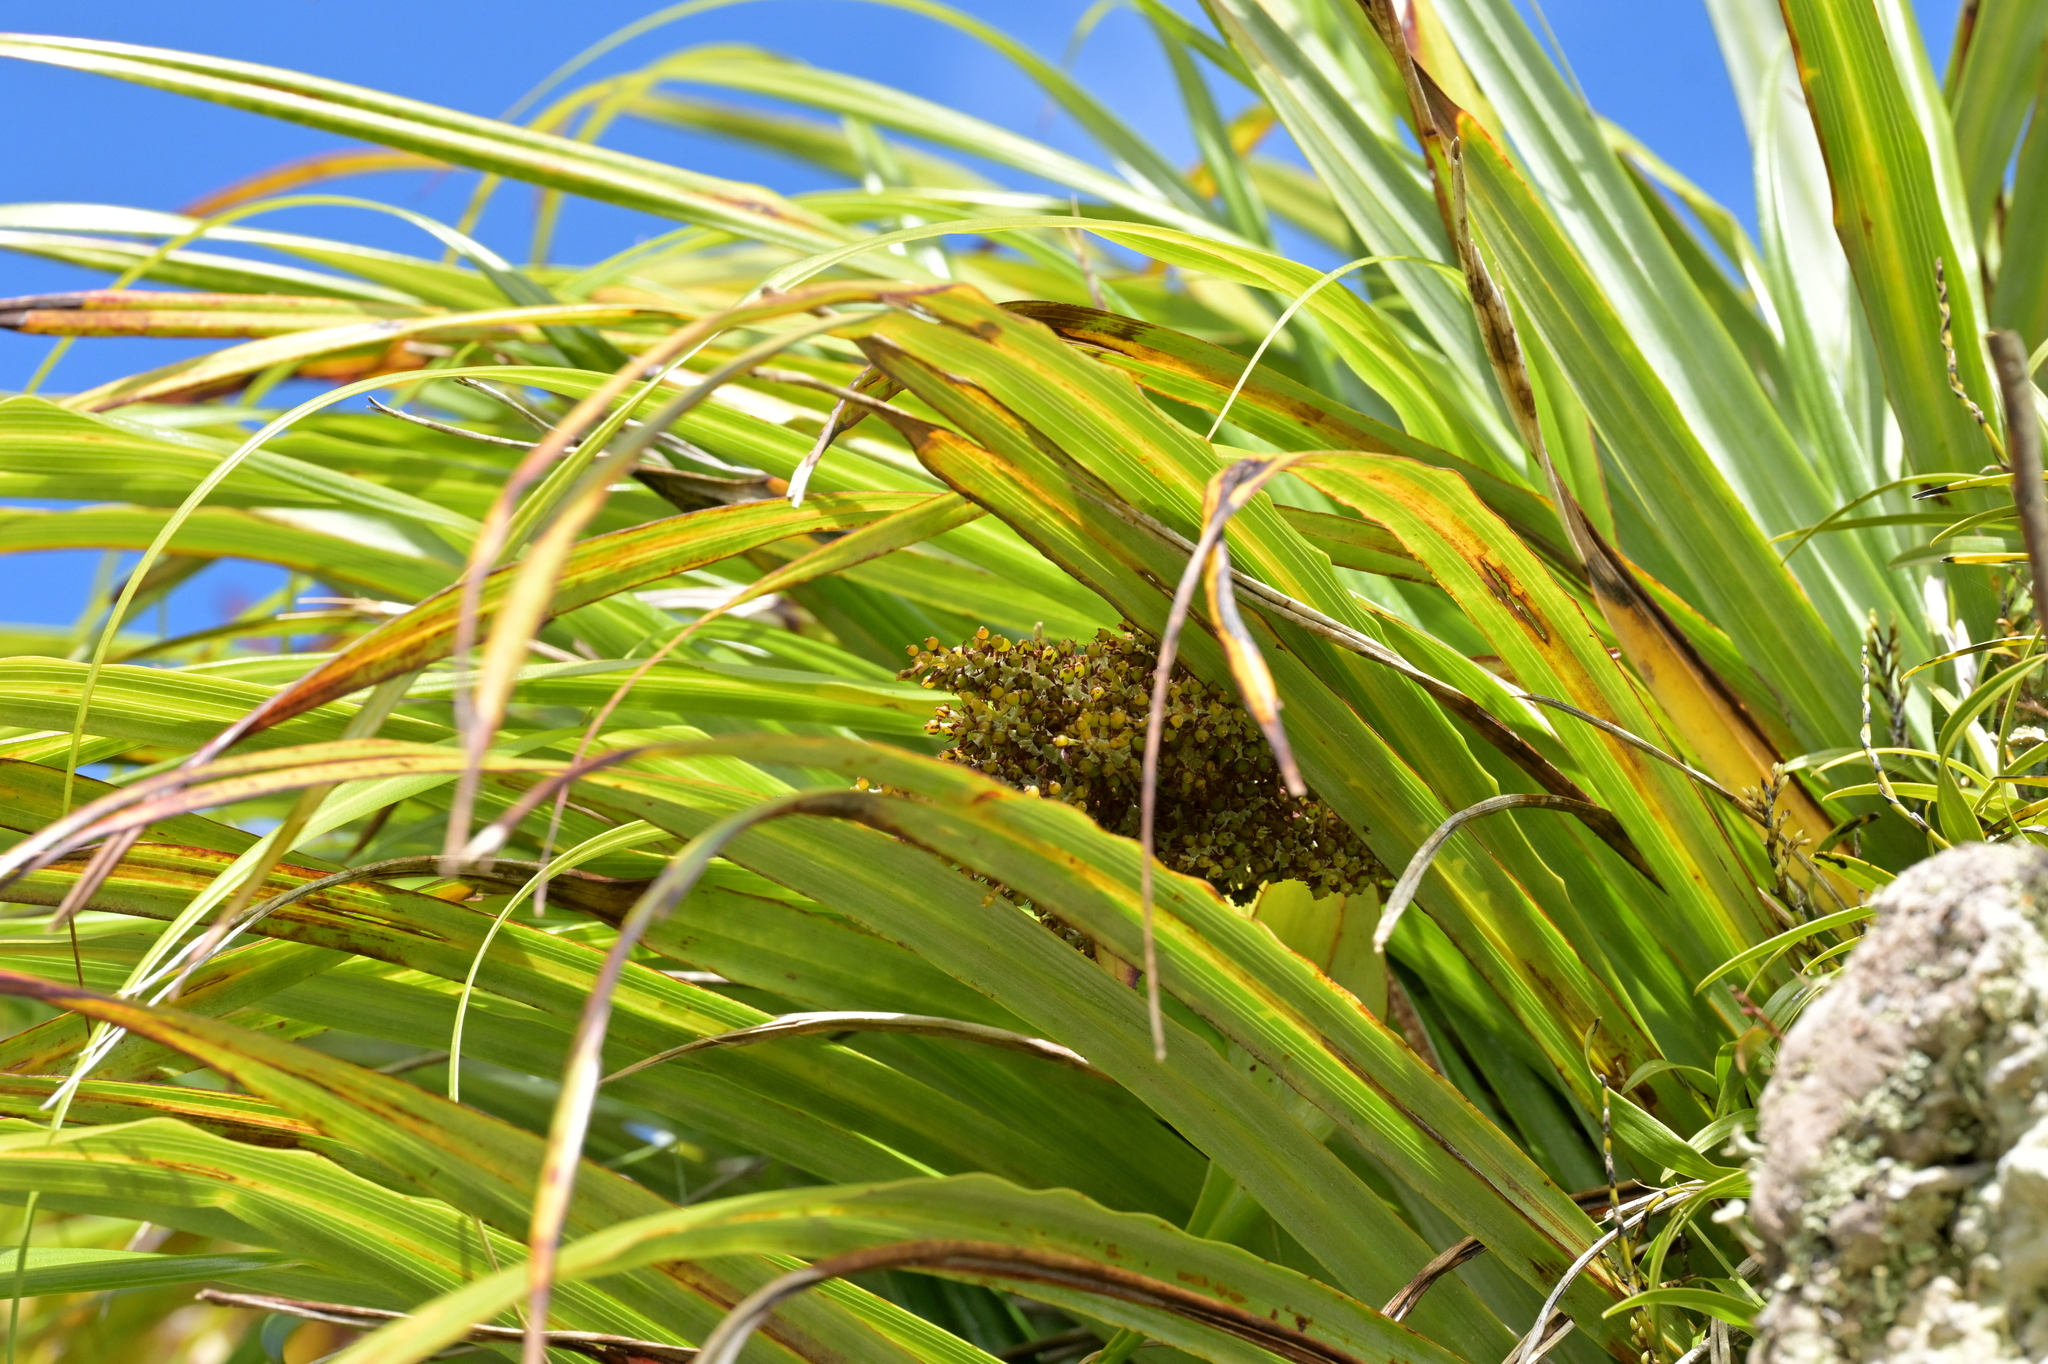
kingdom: Plantae
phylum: Tracheophyta
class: Liliopsida
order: Asparagales
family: Asteliaceae
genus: Astelia
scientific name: Astelia solandri
